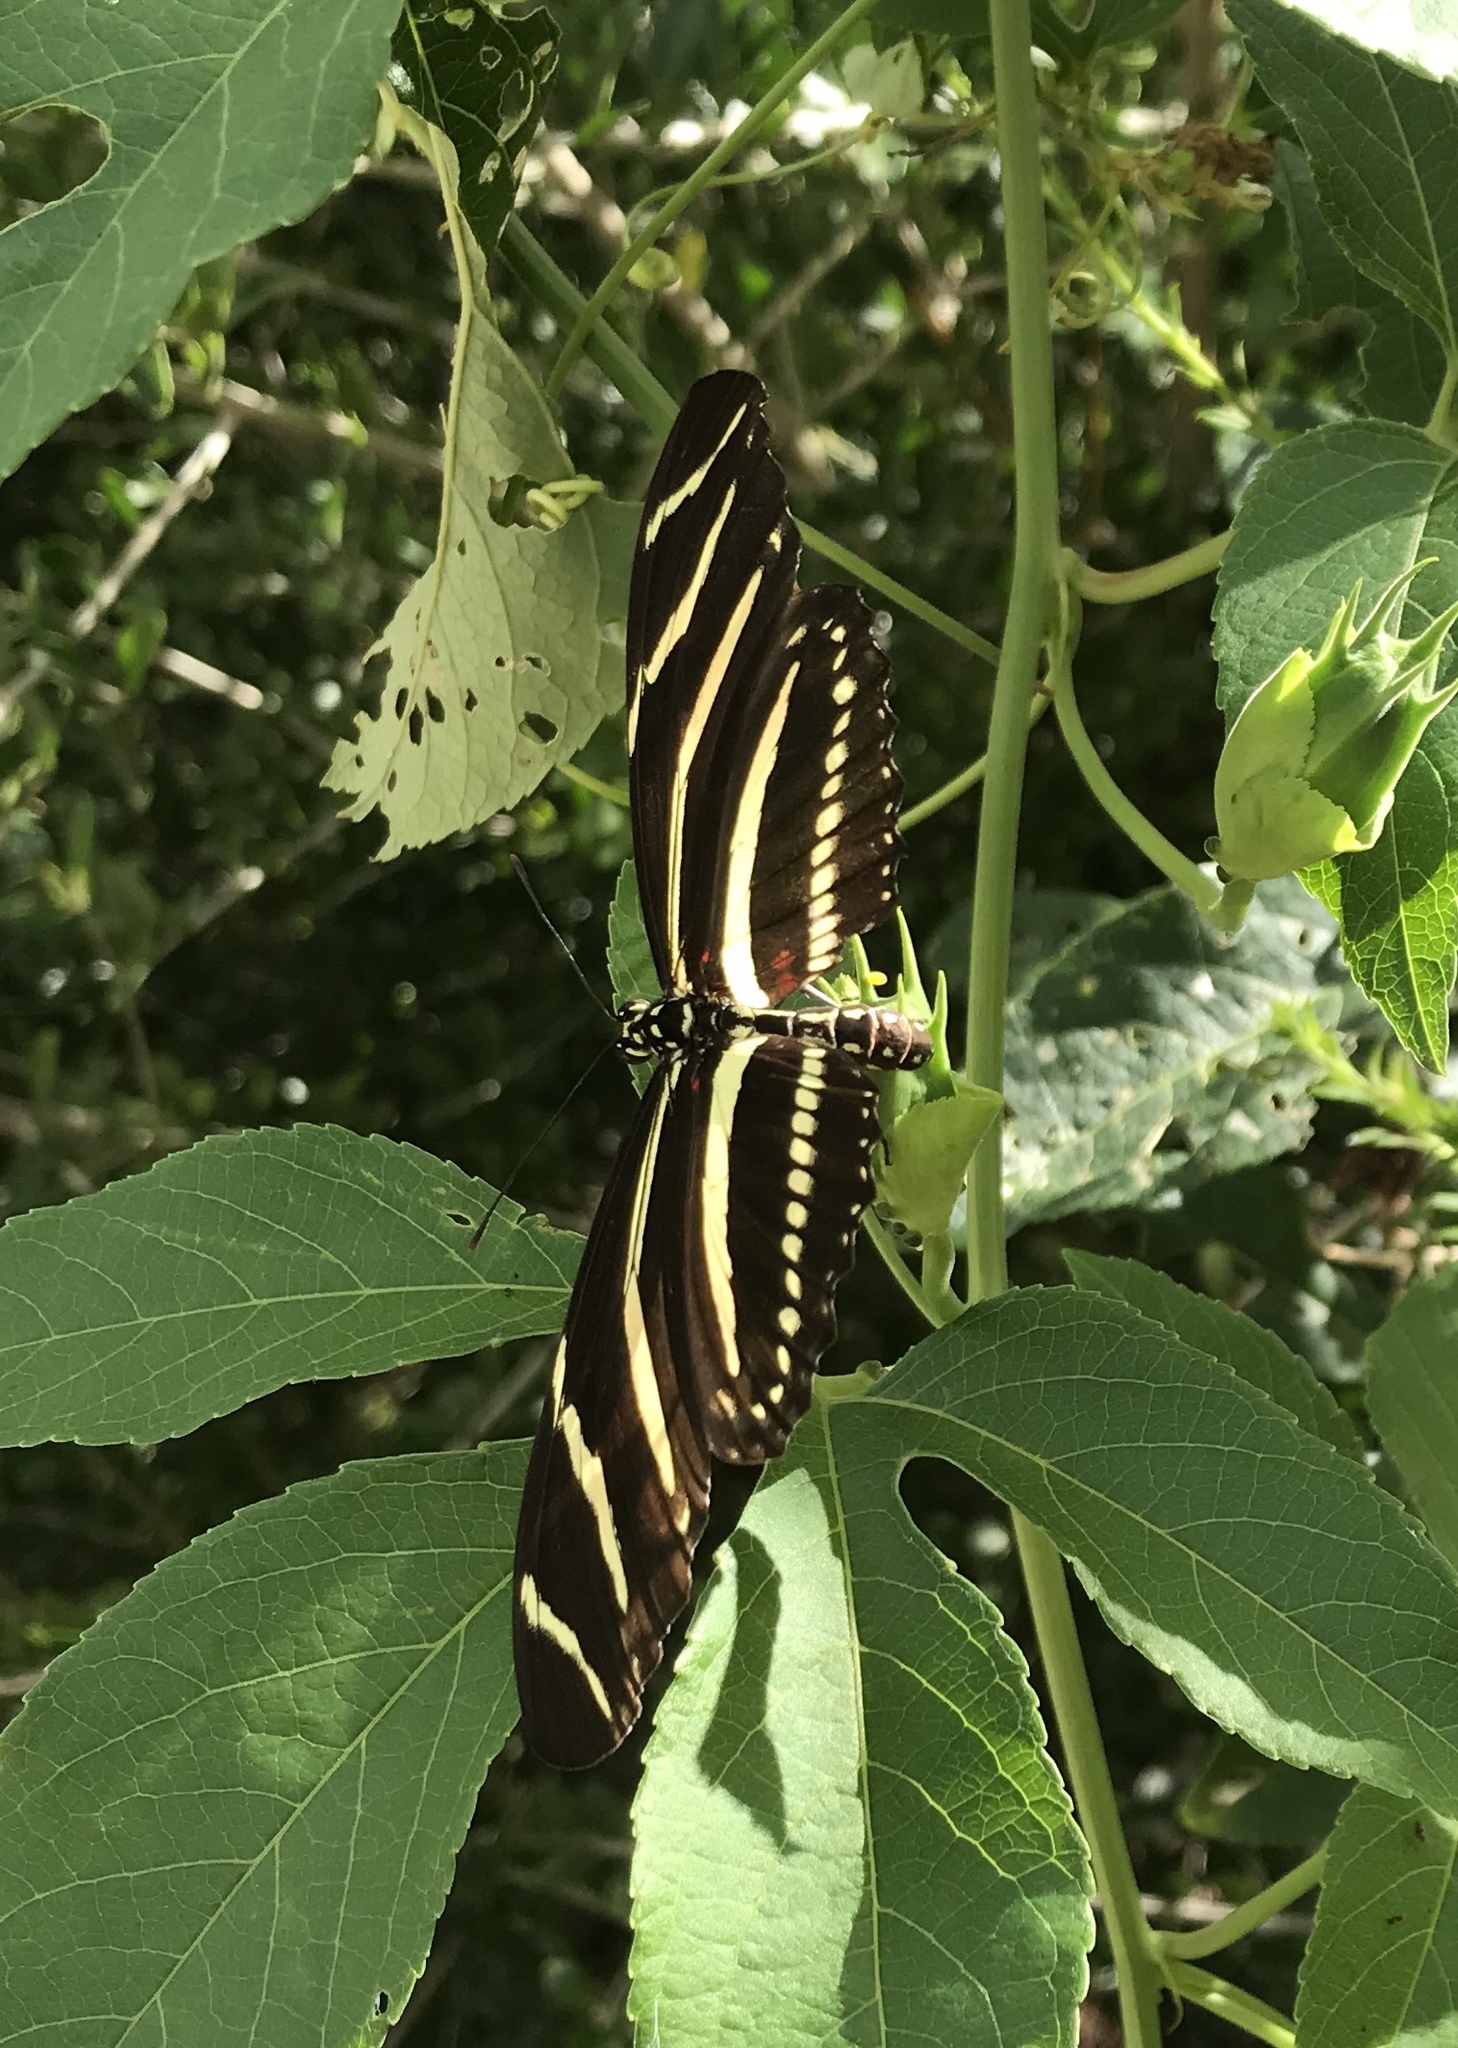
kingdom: Animalia
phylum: Arthropoda
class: Insecta
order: Lepidoptera
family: Nymphalidae
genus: Heliconius
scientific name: Heliconius charithonia
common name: Zebra long wing
